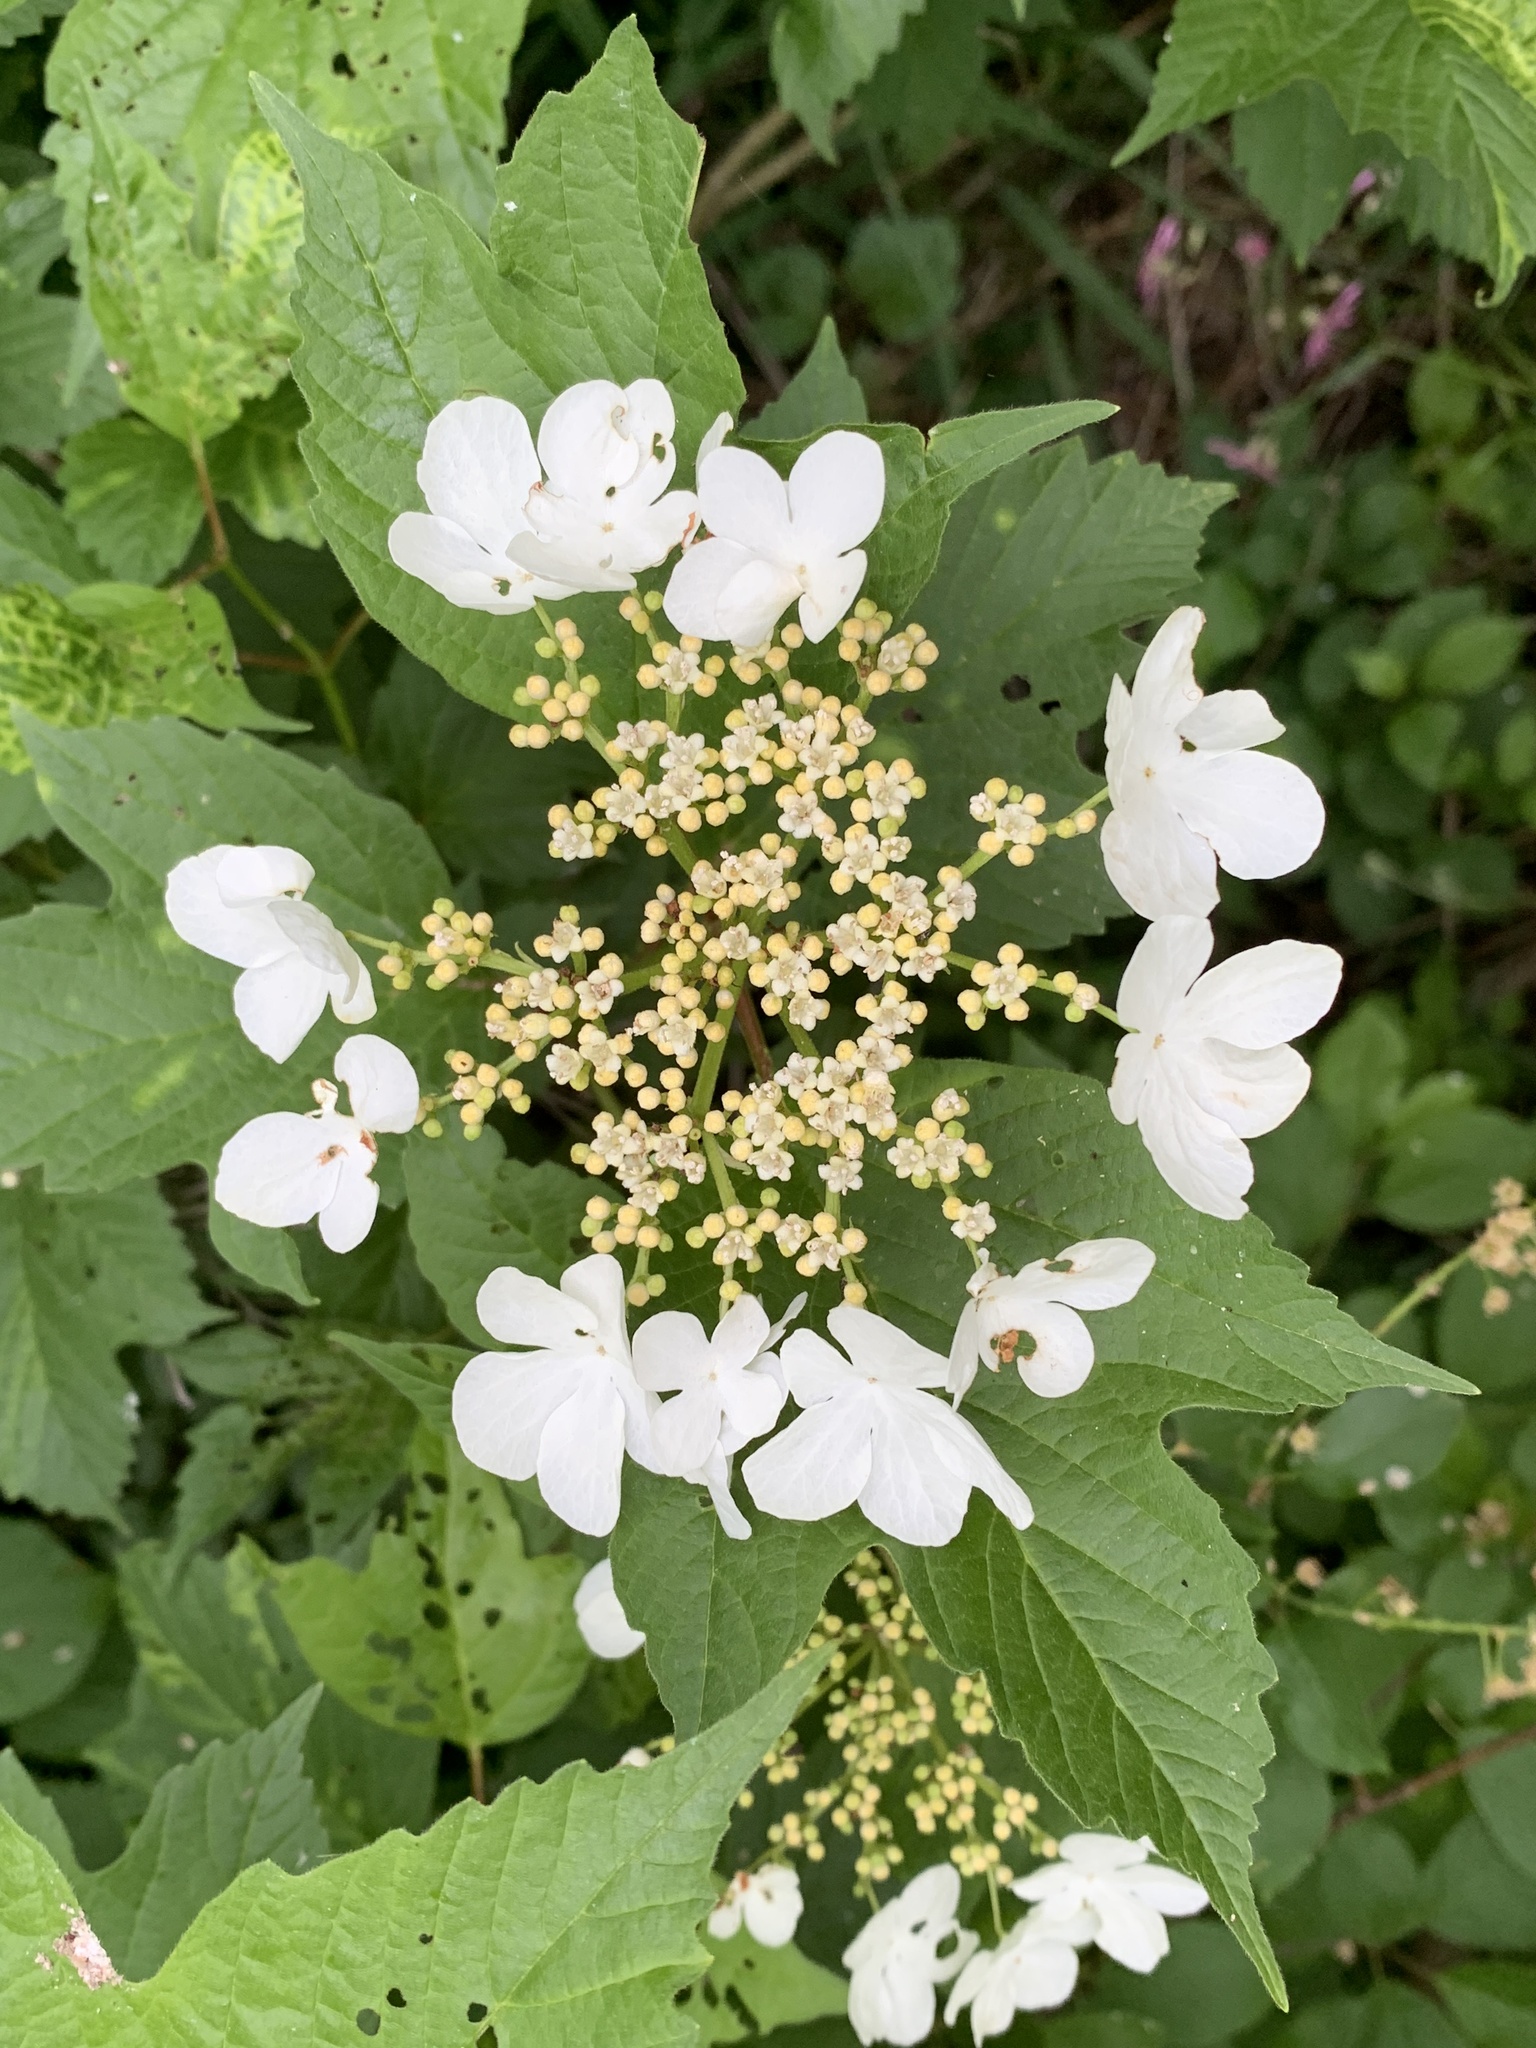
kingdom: Plantae
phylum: Tracheophyta
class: Magnoliopsida
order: Dipsacales
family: Viburnaceae
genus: Viburnum
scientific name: Viburnum opulus
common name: Guelder-rose
